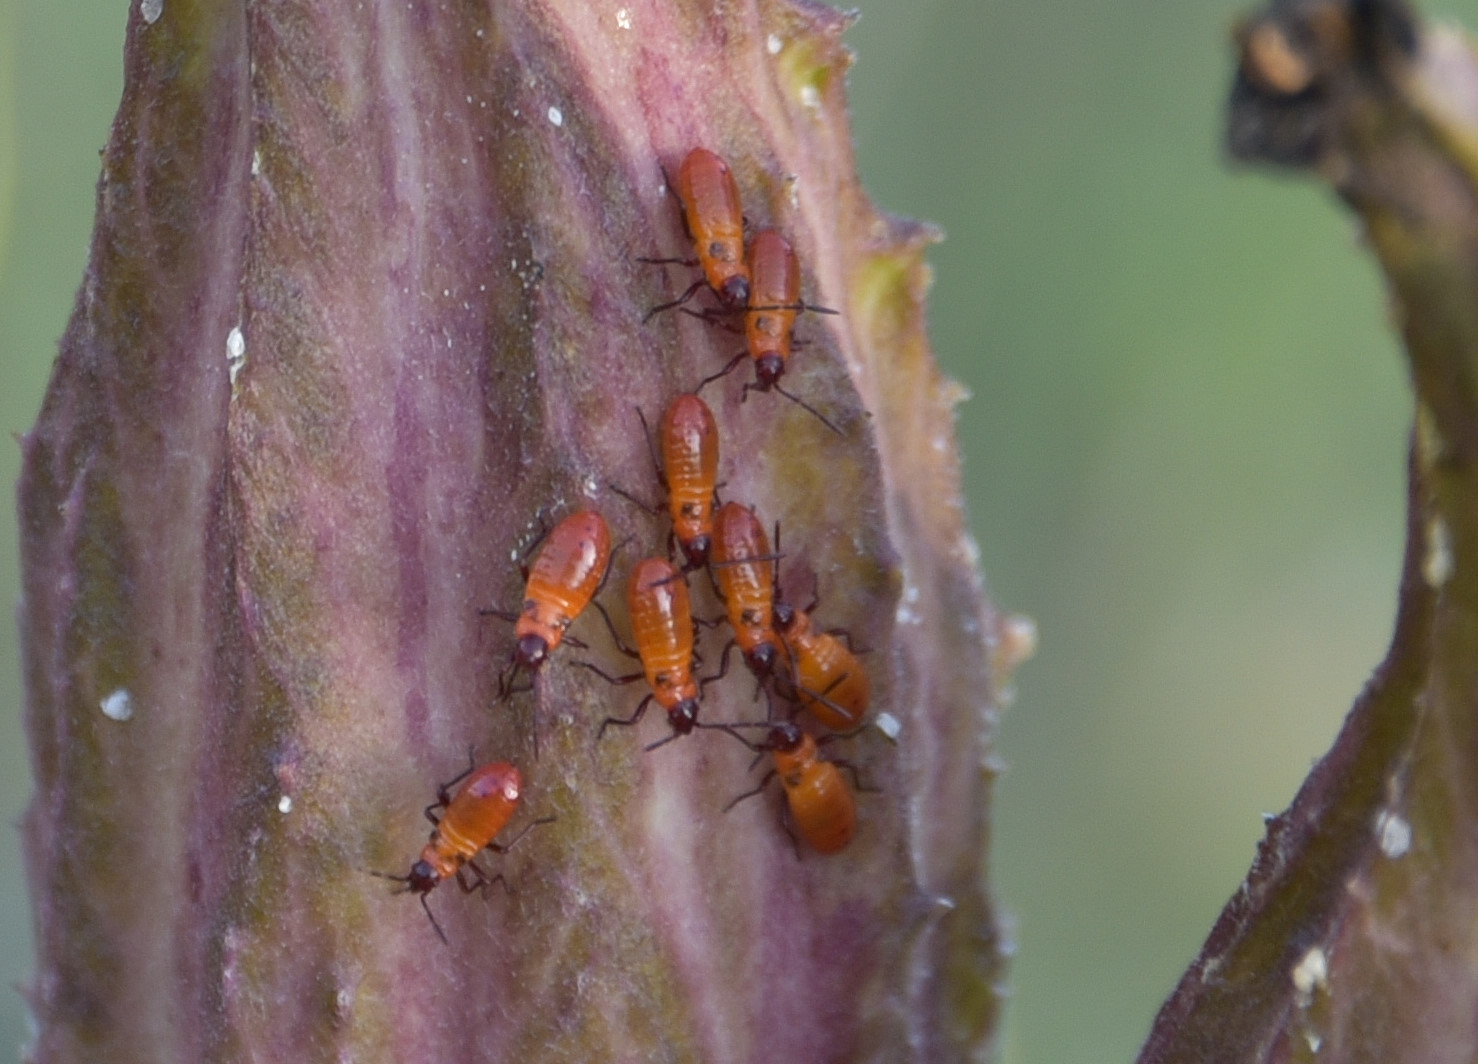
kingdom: Animalia
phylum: Arthropoda
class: Insecta
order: Hemiptera
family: Lygaeidae
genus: Oncopeltus
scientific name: Oncopeltus fasciatus
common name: Large milkweed bug
